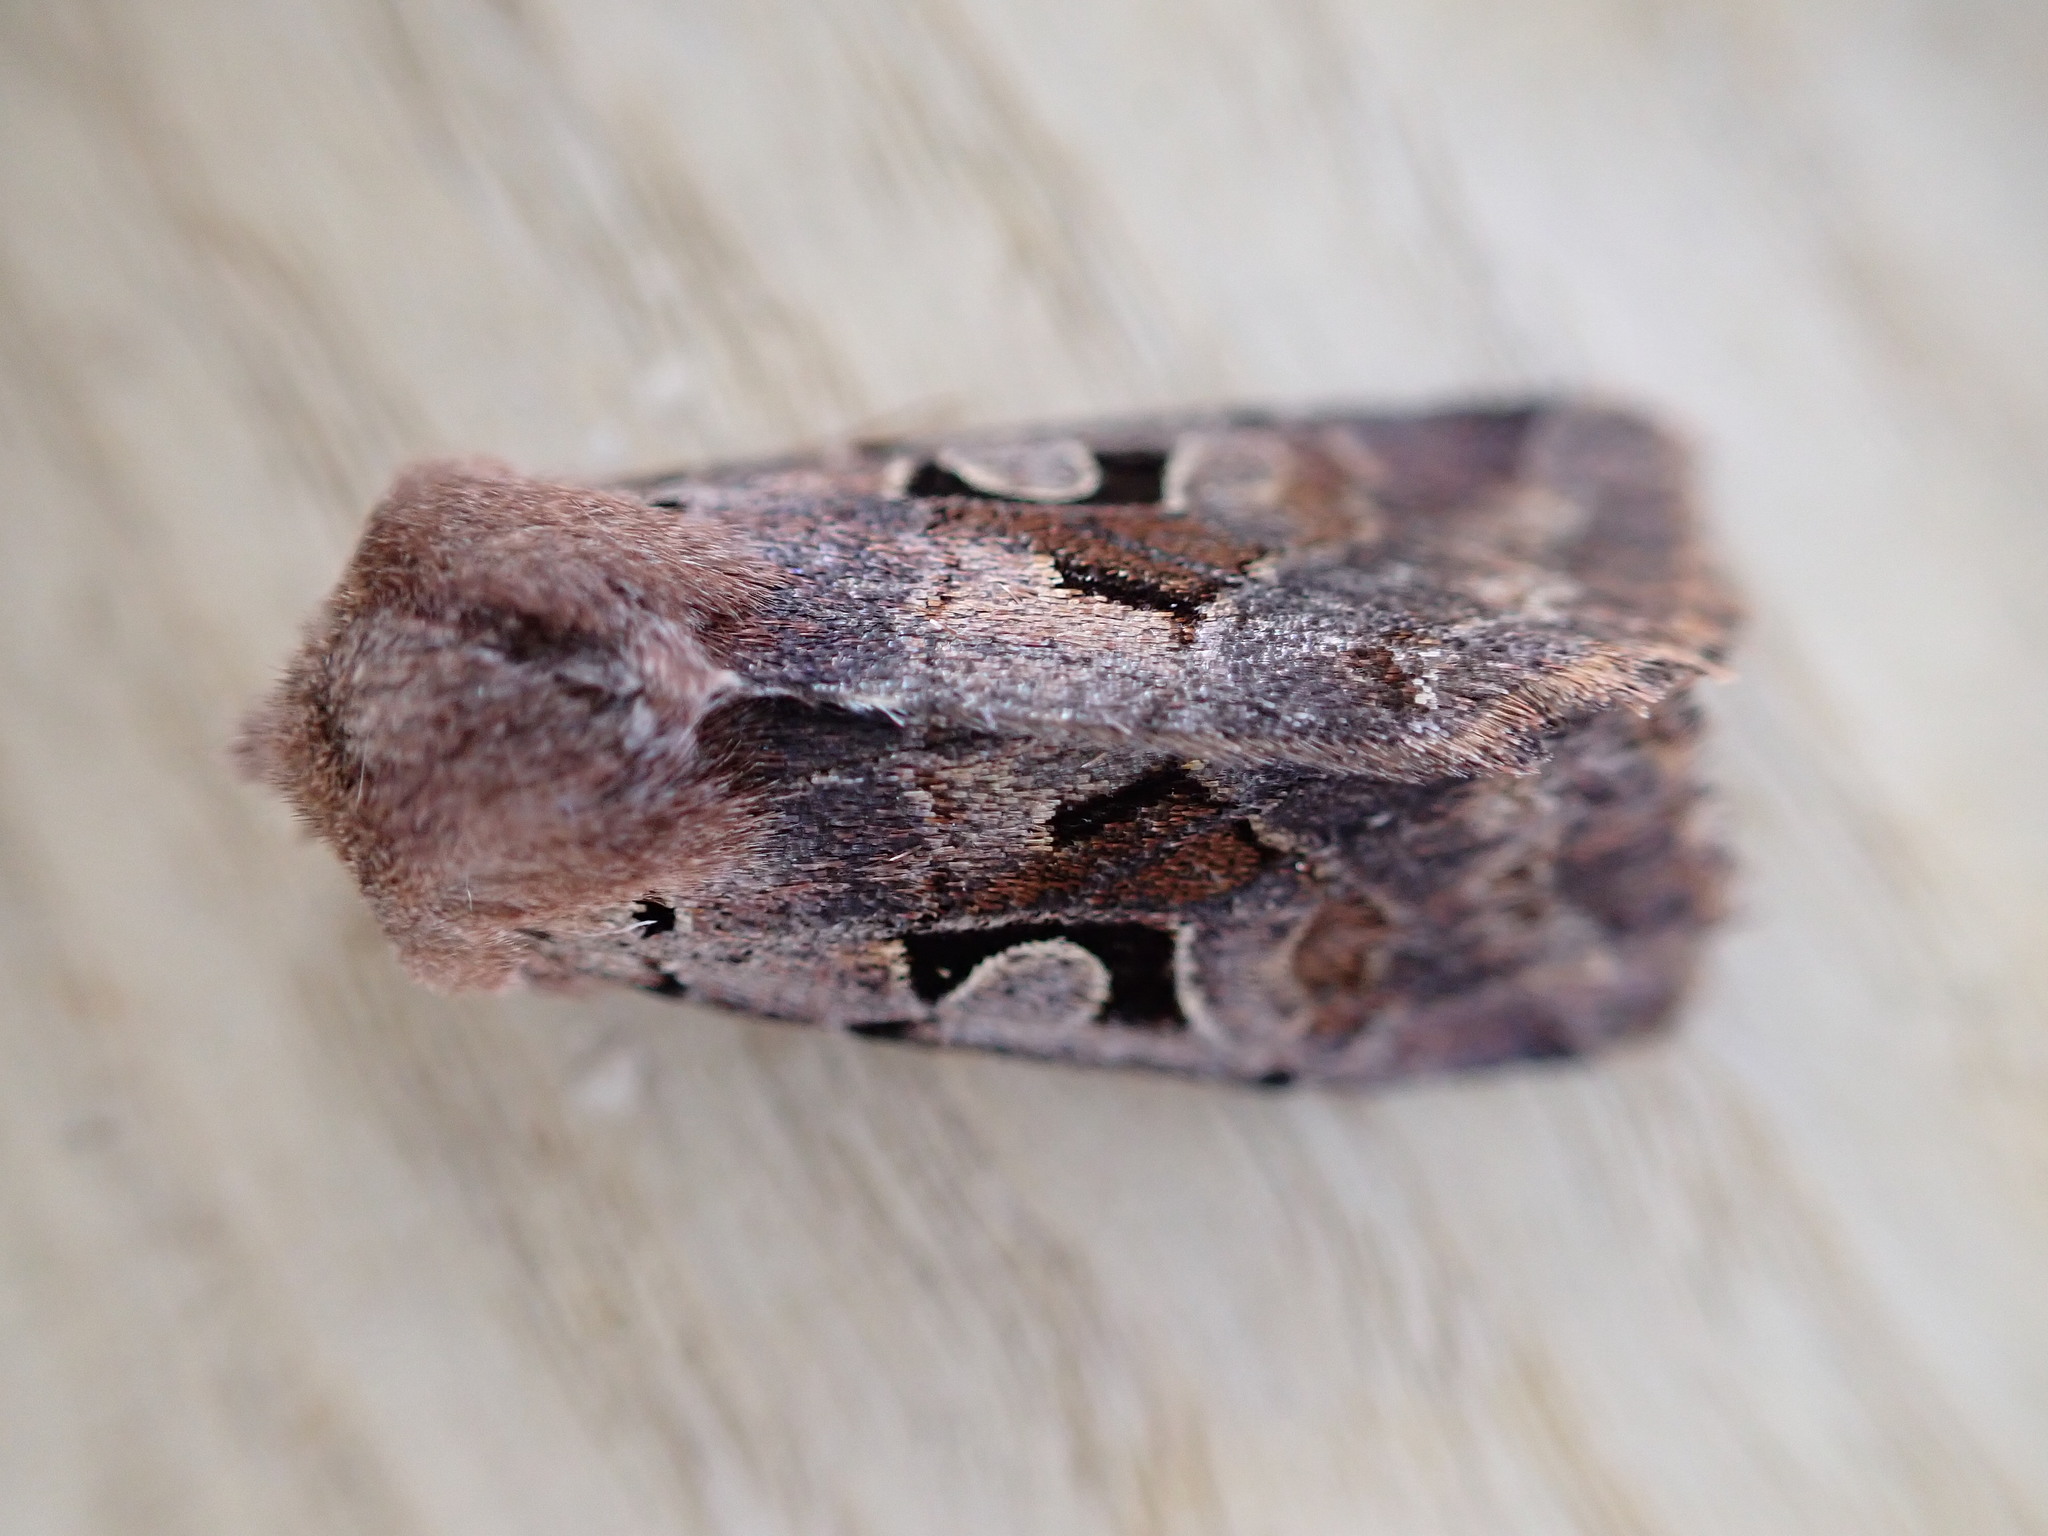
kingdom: Animalia
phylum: Arthropoda
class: Insecta
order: Lepidoptera
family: Noctuidae
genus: Orthosia
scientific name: Orthosia gothica
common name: Hebrew character
